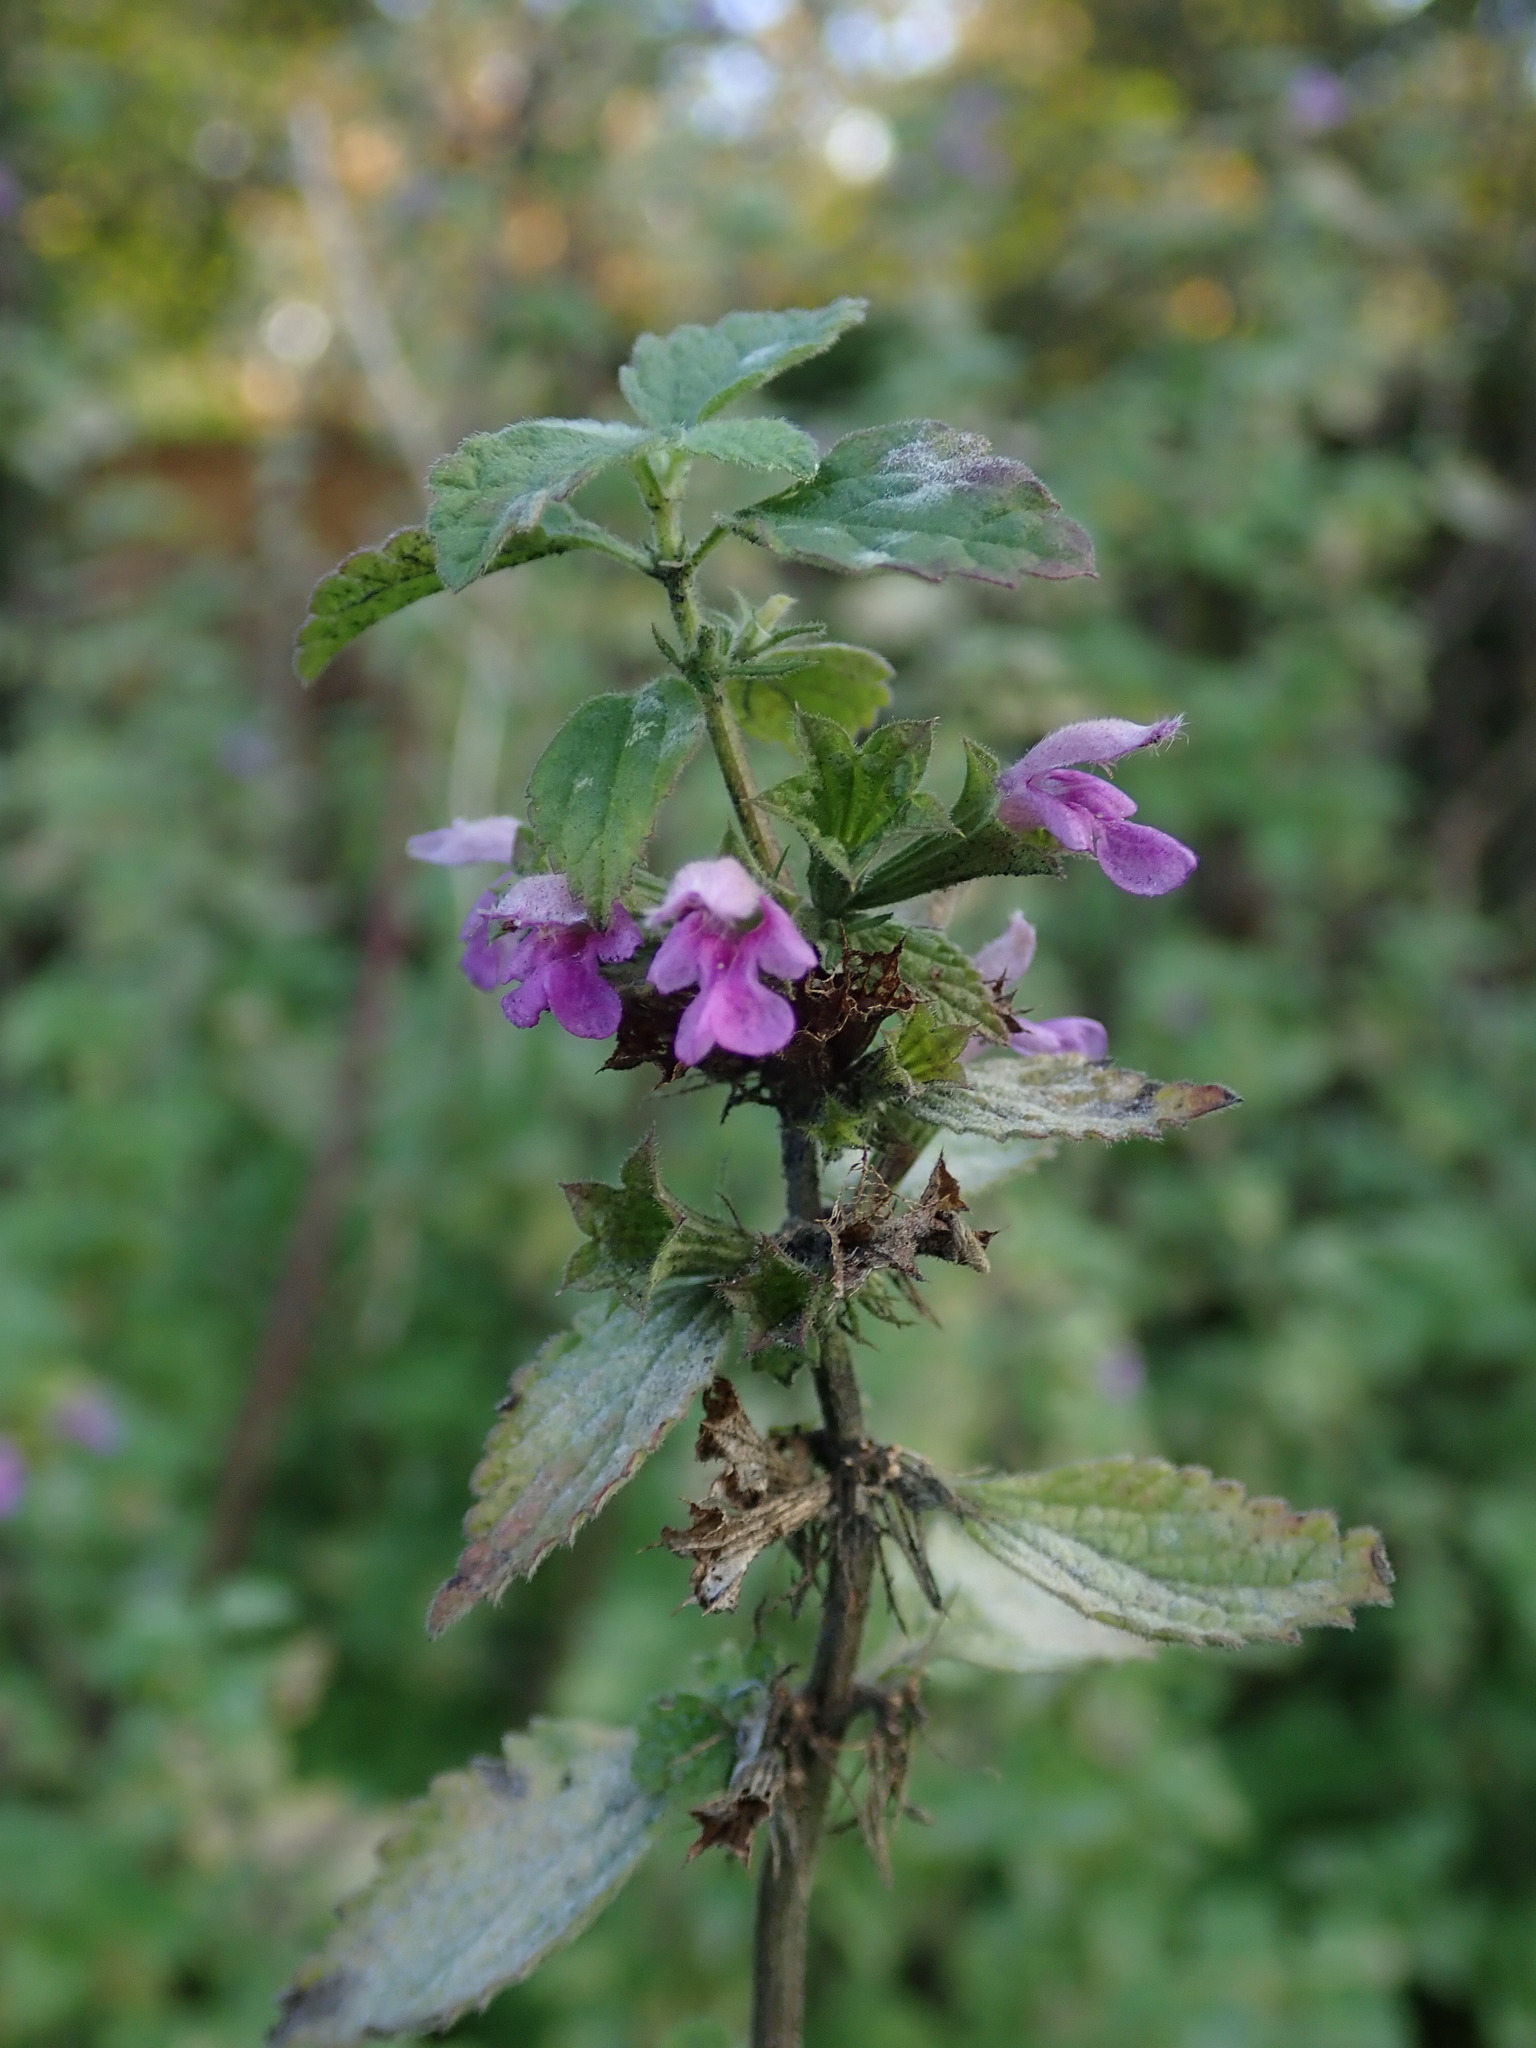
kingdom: Plantae
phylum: Tracheophyta
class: Magnoliopsida
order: Lamiales
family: Lamiaceae
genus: Ballota
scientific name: Ballota nigra
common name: Black horehound
